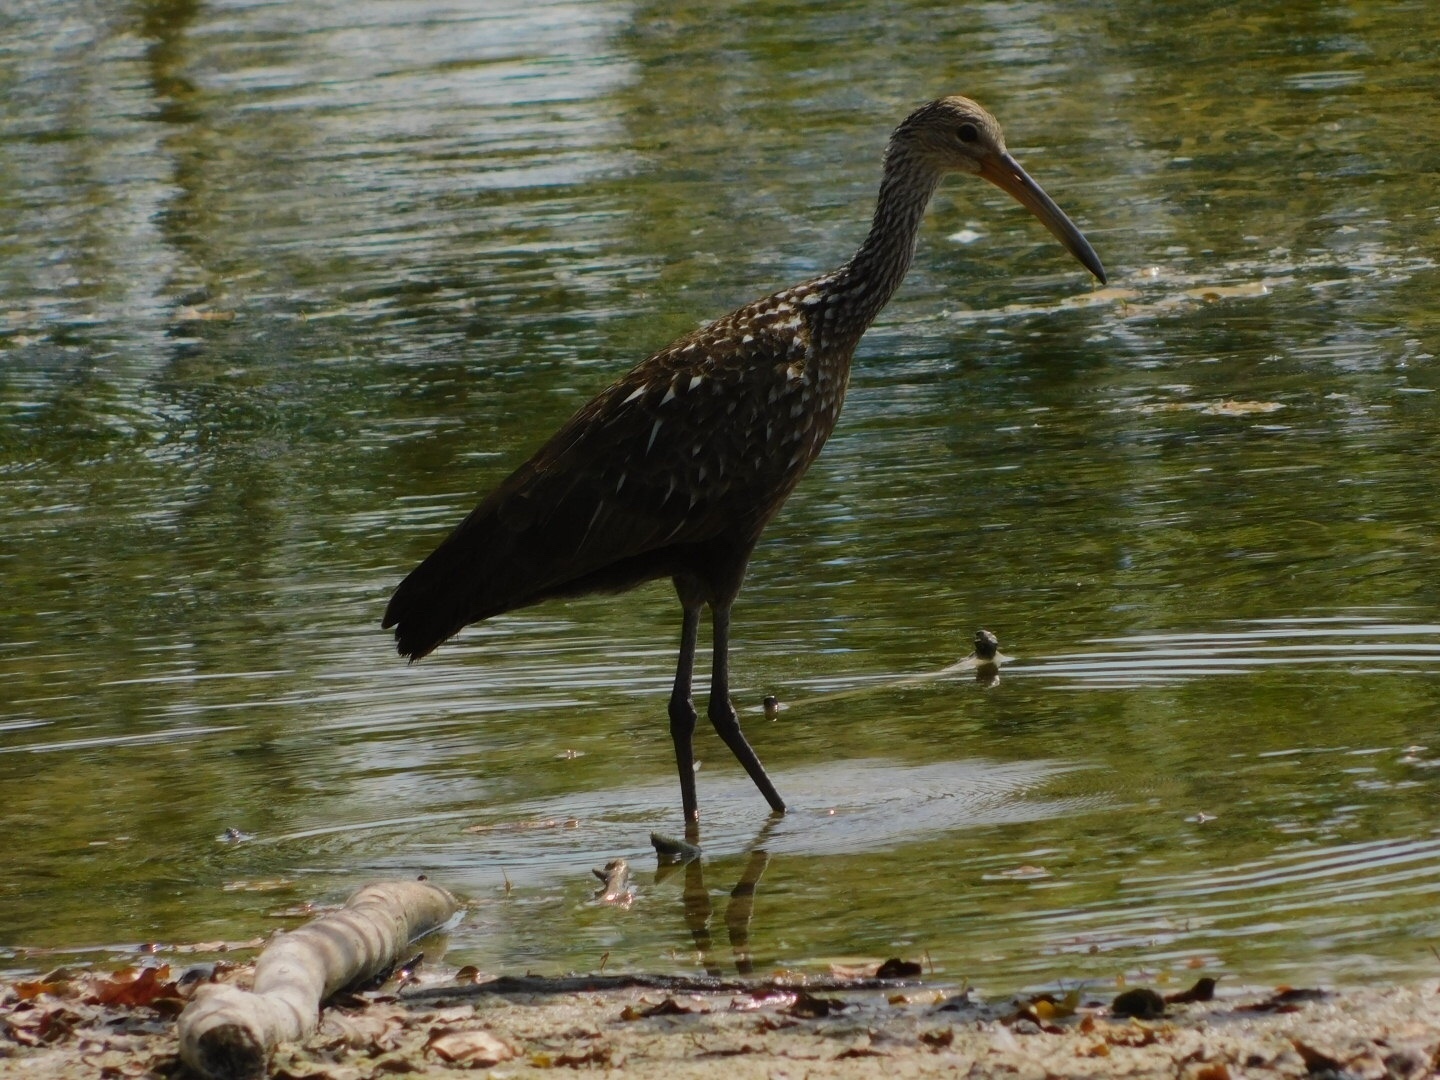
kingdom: Animalia
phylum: Chordata
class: Aves
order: Gruiformes
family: Aramidae
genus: Aramus
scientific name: Aramus guarauna
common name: Limpkin
